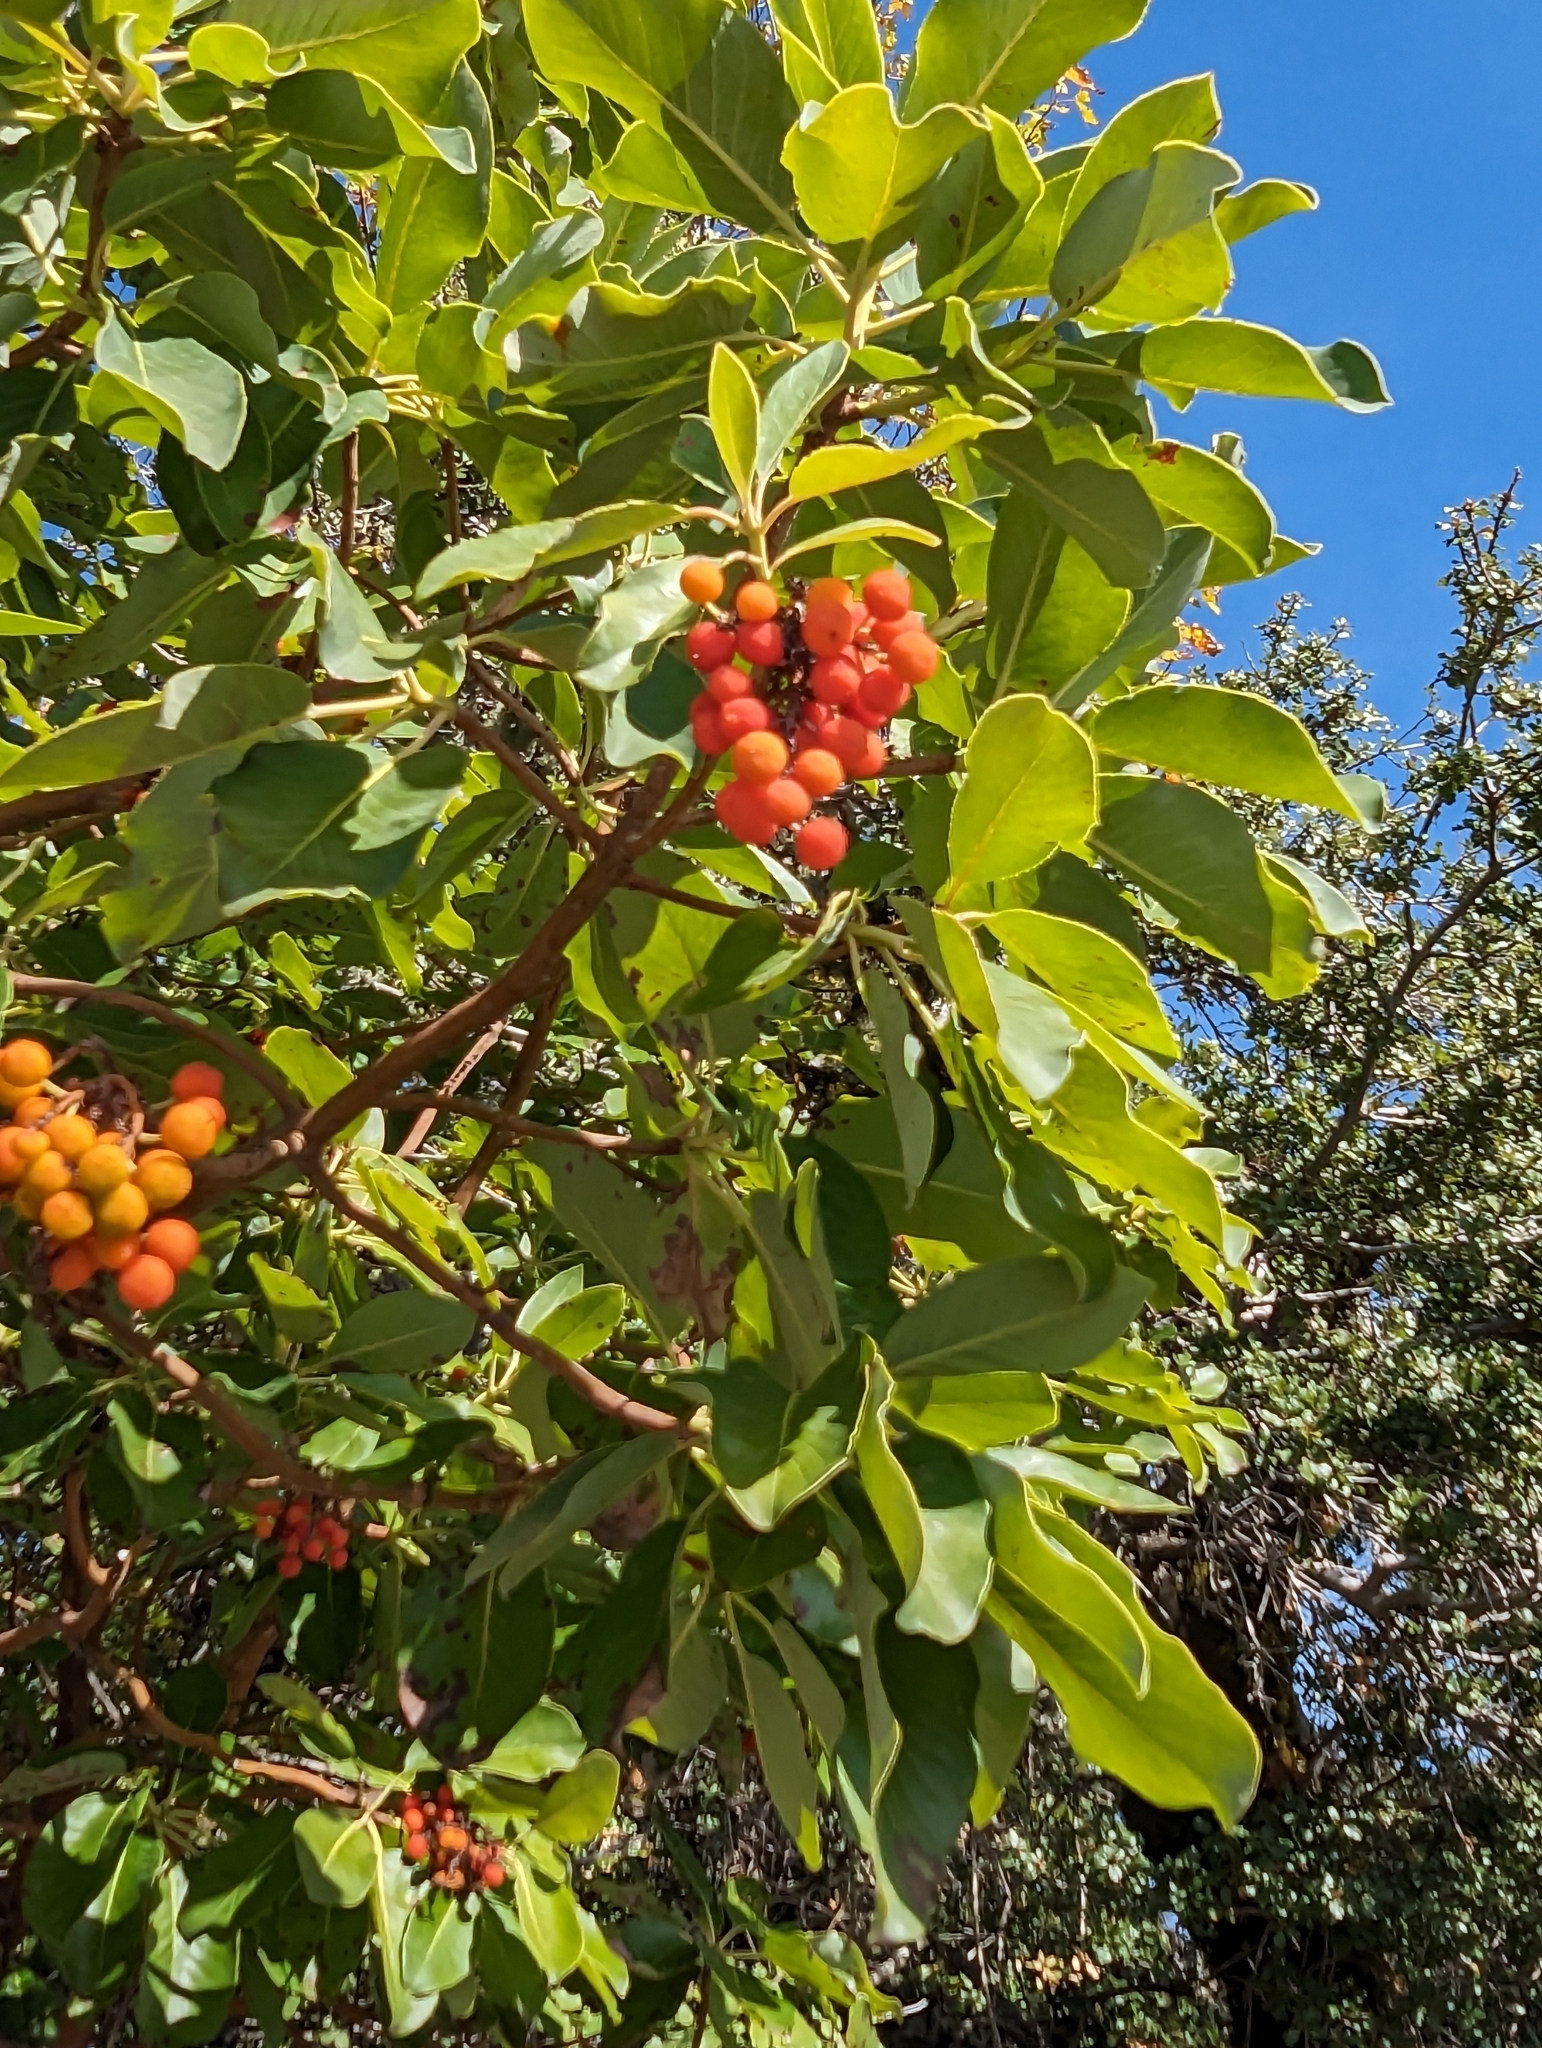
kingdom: Plantae
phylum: Tracheophyta
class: Magnoliopsida
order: Ericales
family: Ericaceae
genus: Arbutus
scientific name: Arbutus menziesii
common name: Pacific madrone
